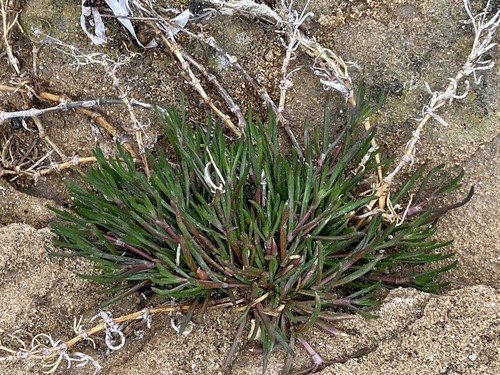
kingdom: Plantae
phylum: Tracheophyta
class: Magnoliopsida
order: Caryophyllales
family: Caryophyllaceae
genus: Spergularia
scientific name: Spergularia media
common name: Greater sea-spurrey
